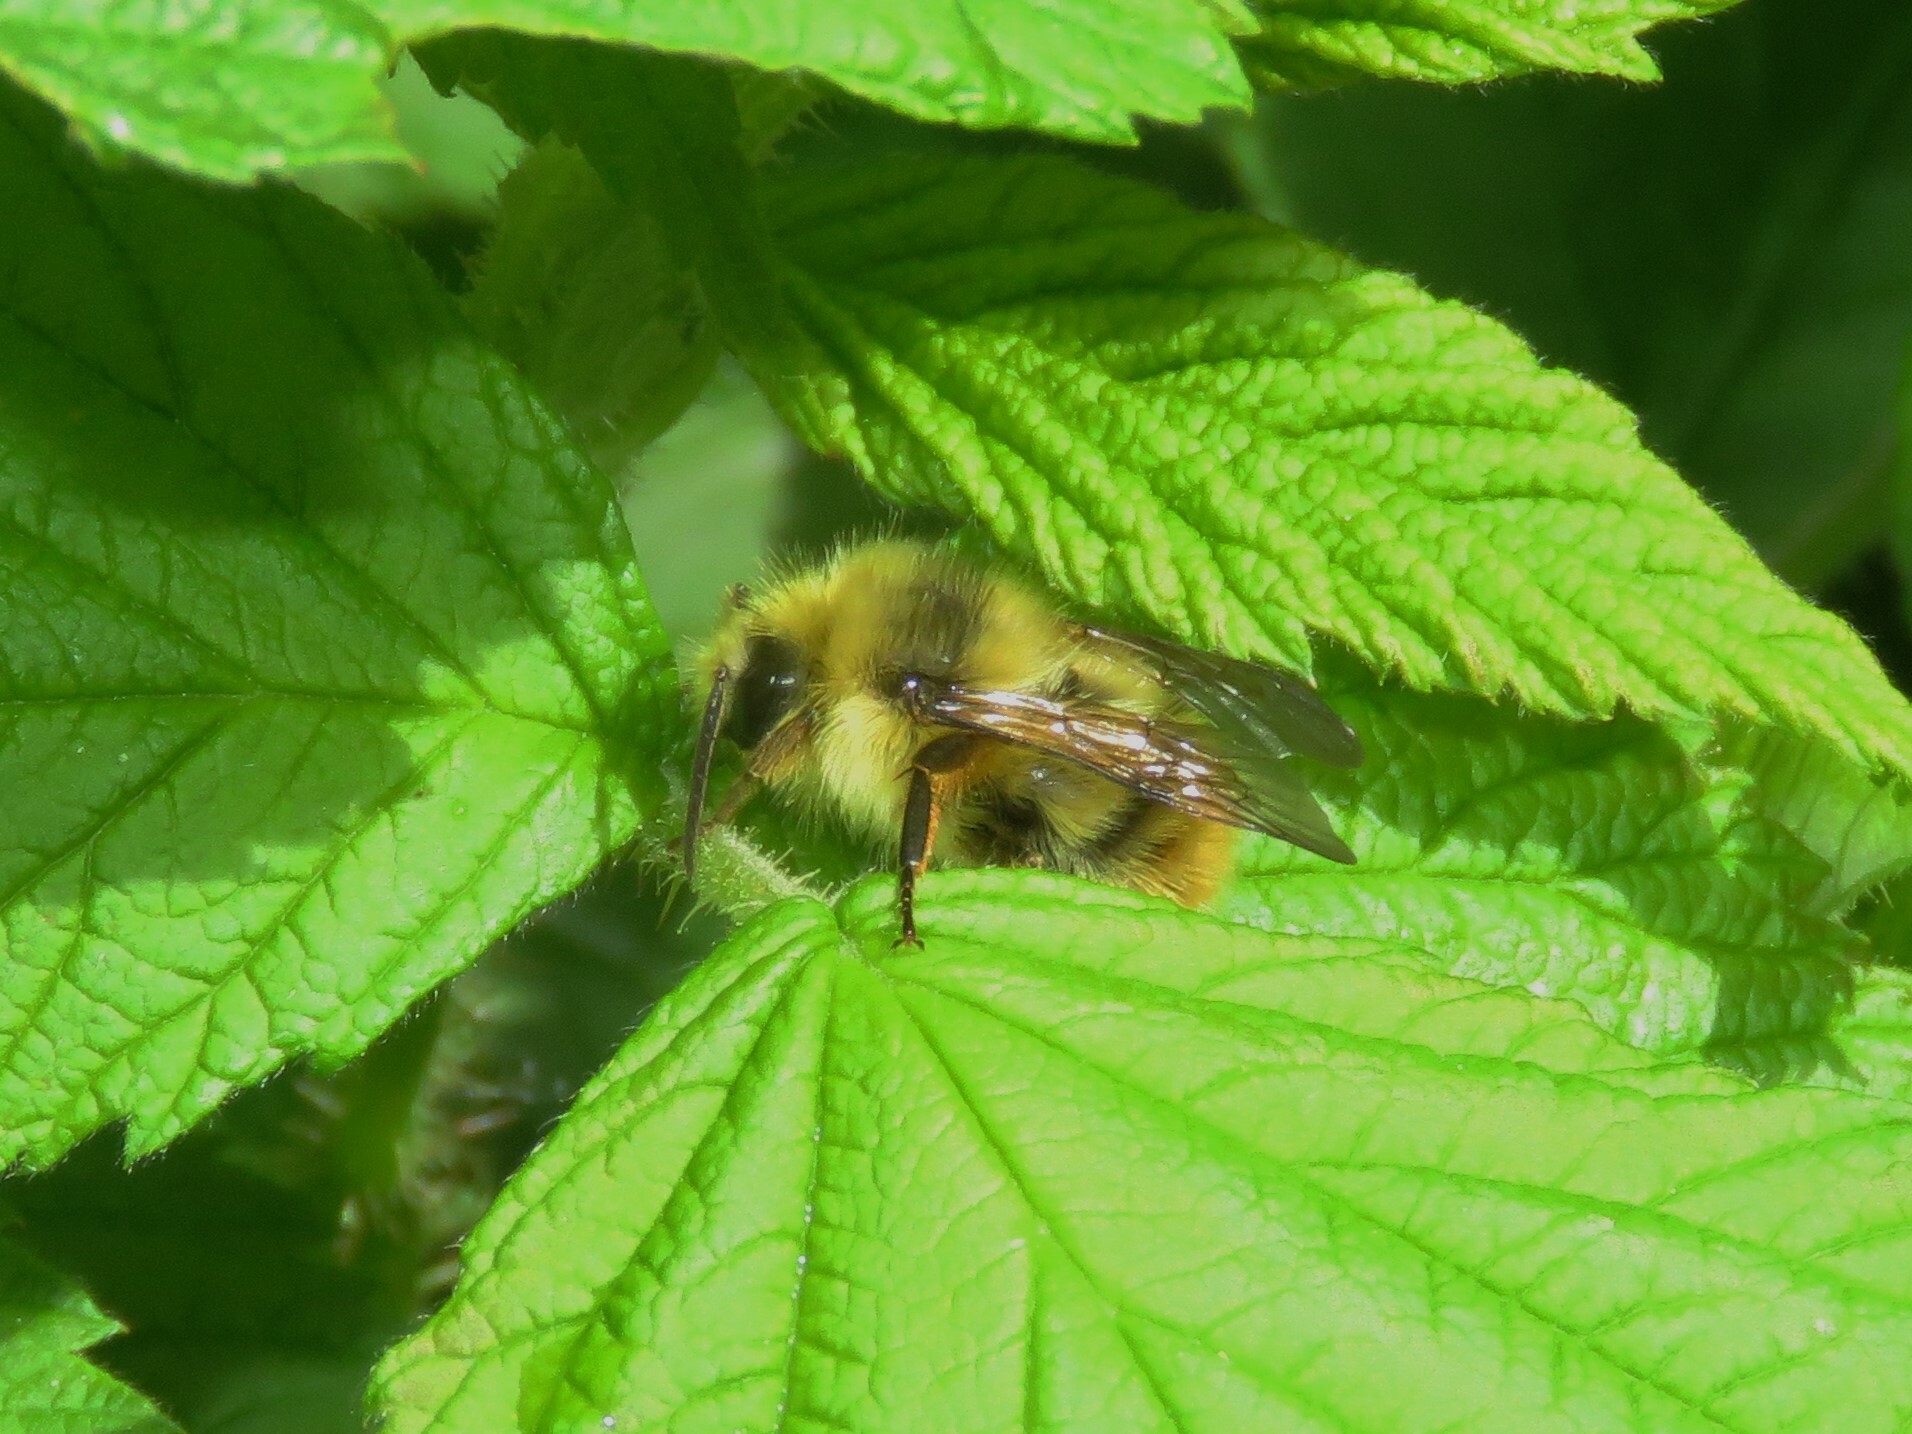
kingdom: Animalia
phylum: Arthropoda
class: Insecta
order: Hymenoptera
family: Apidae
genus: Bombus
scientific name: Bombus mixtus
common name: Fuzzy-horned bumble bee
